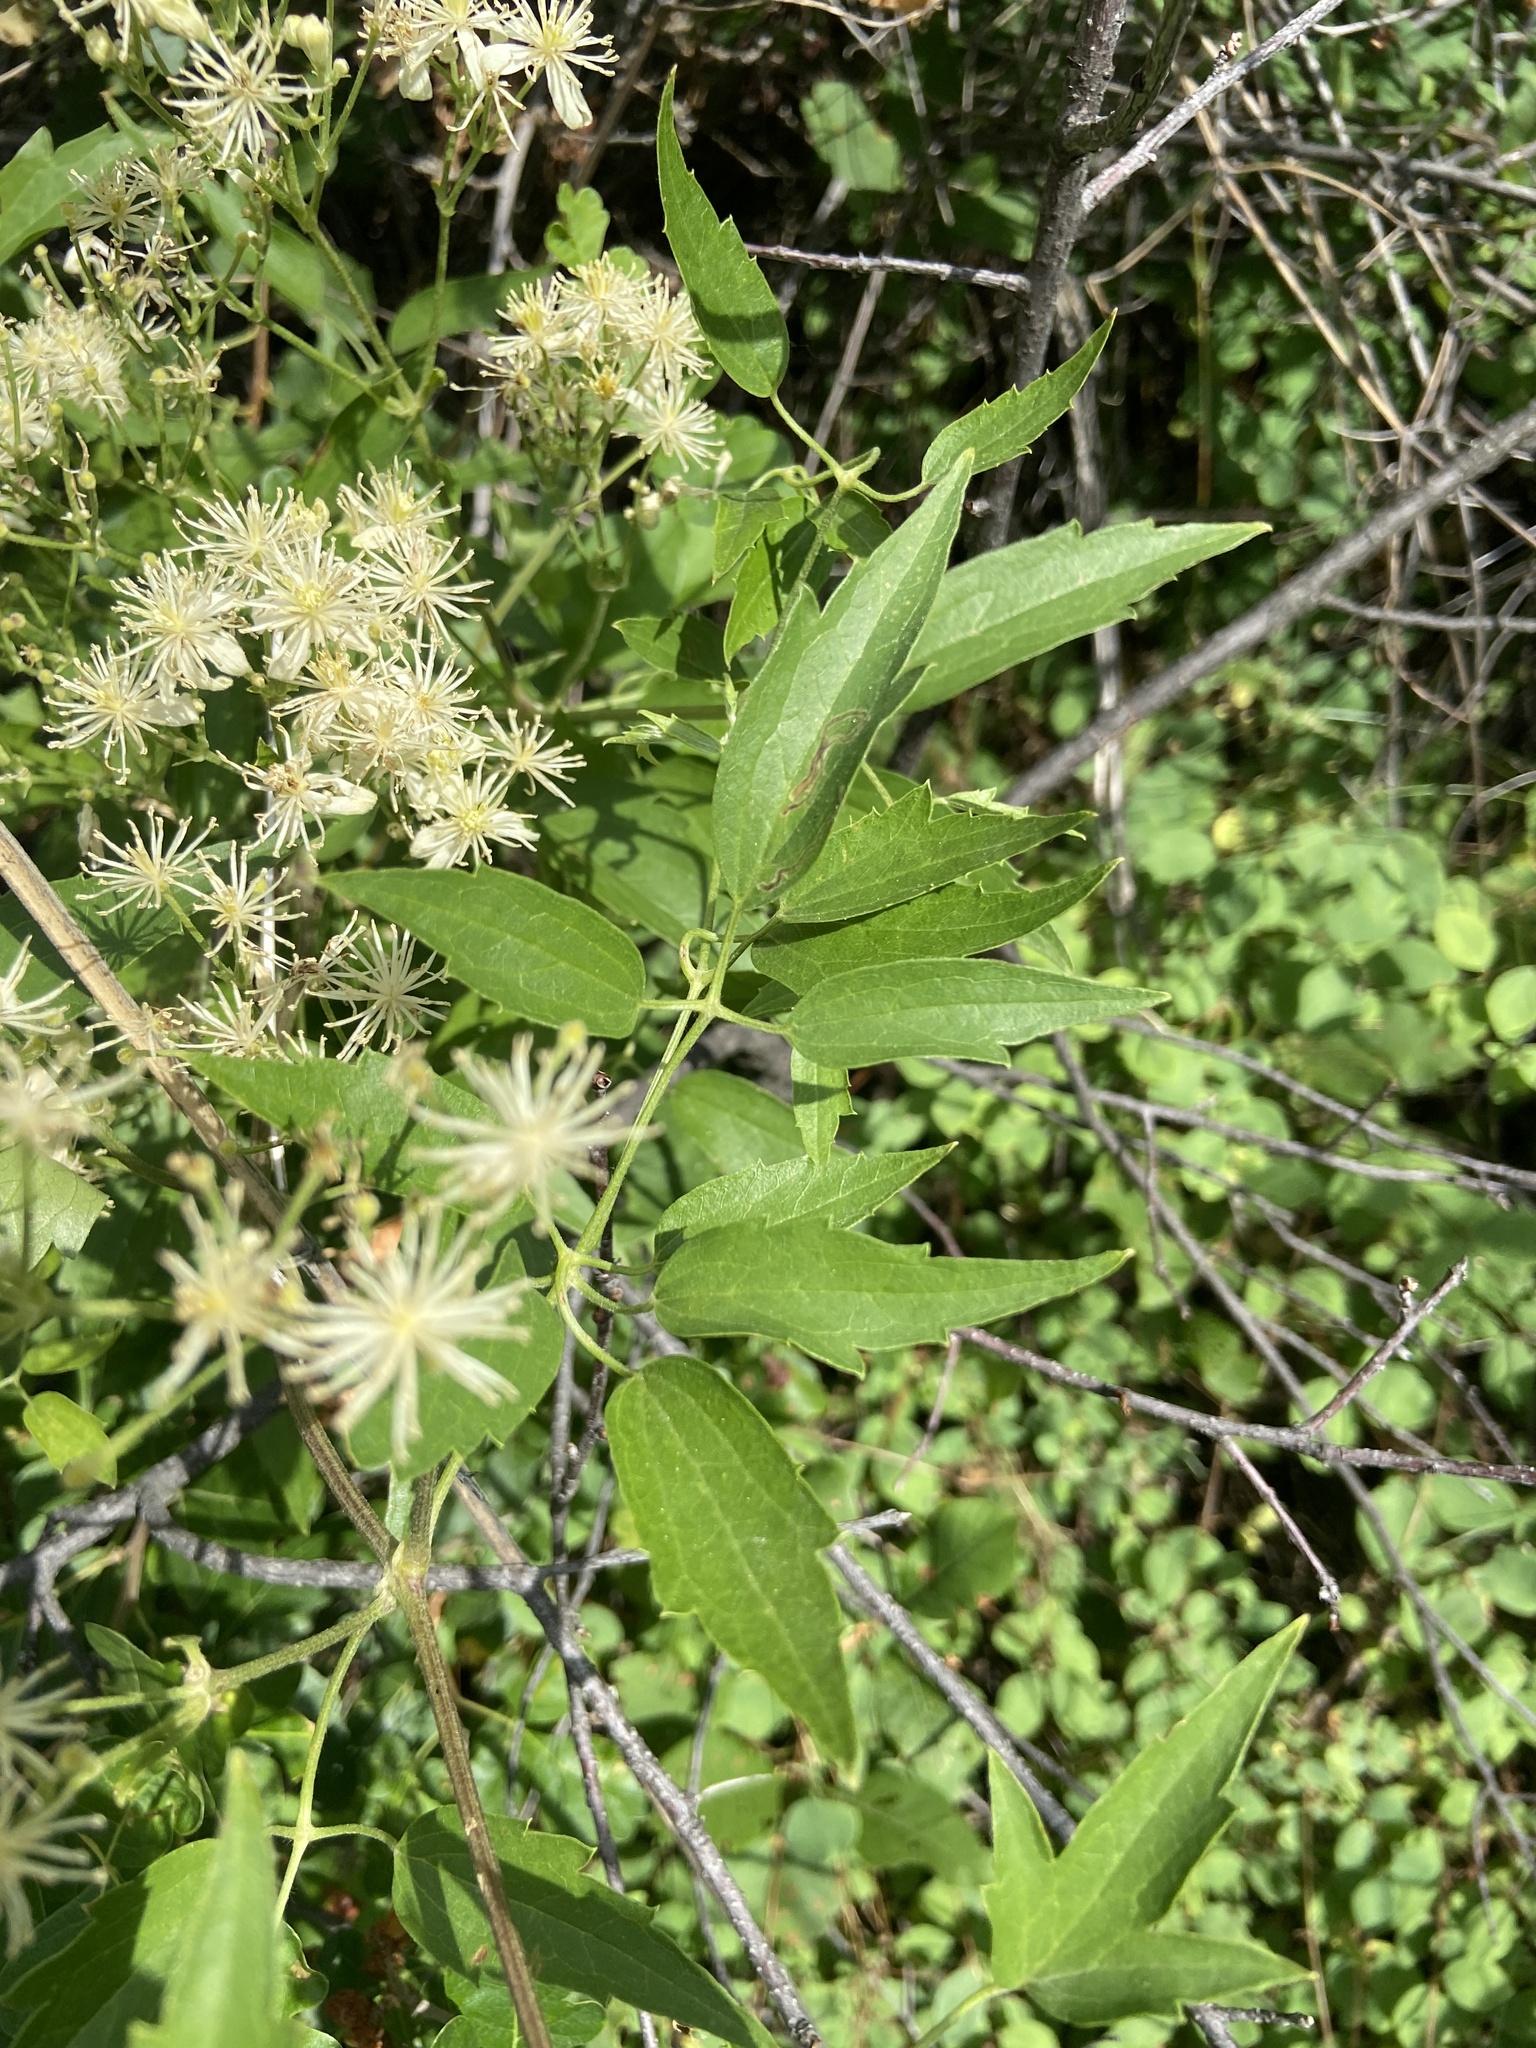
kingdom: Plantae
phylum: Tracheophyta
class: Magnoliopsida
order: Ranunculales
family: Ranunculaceae
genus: Clematis
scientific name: Clematis ligusticifolia
